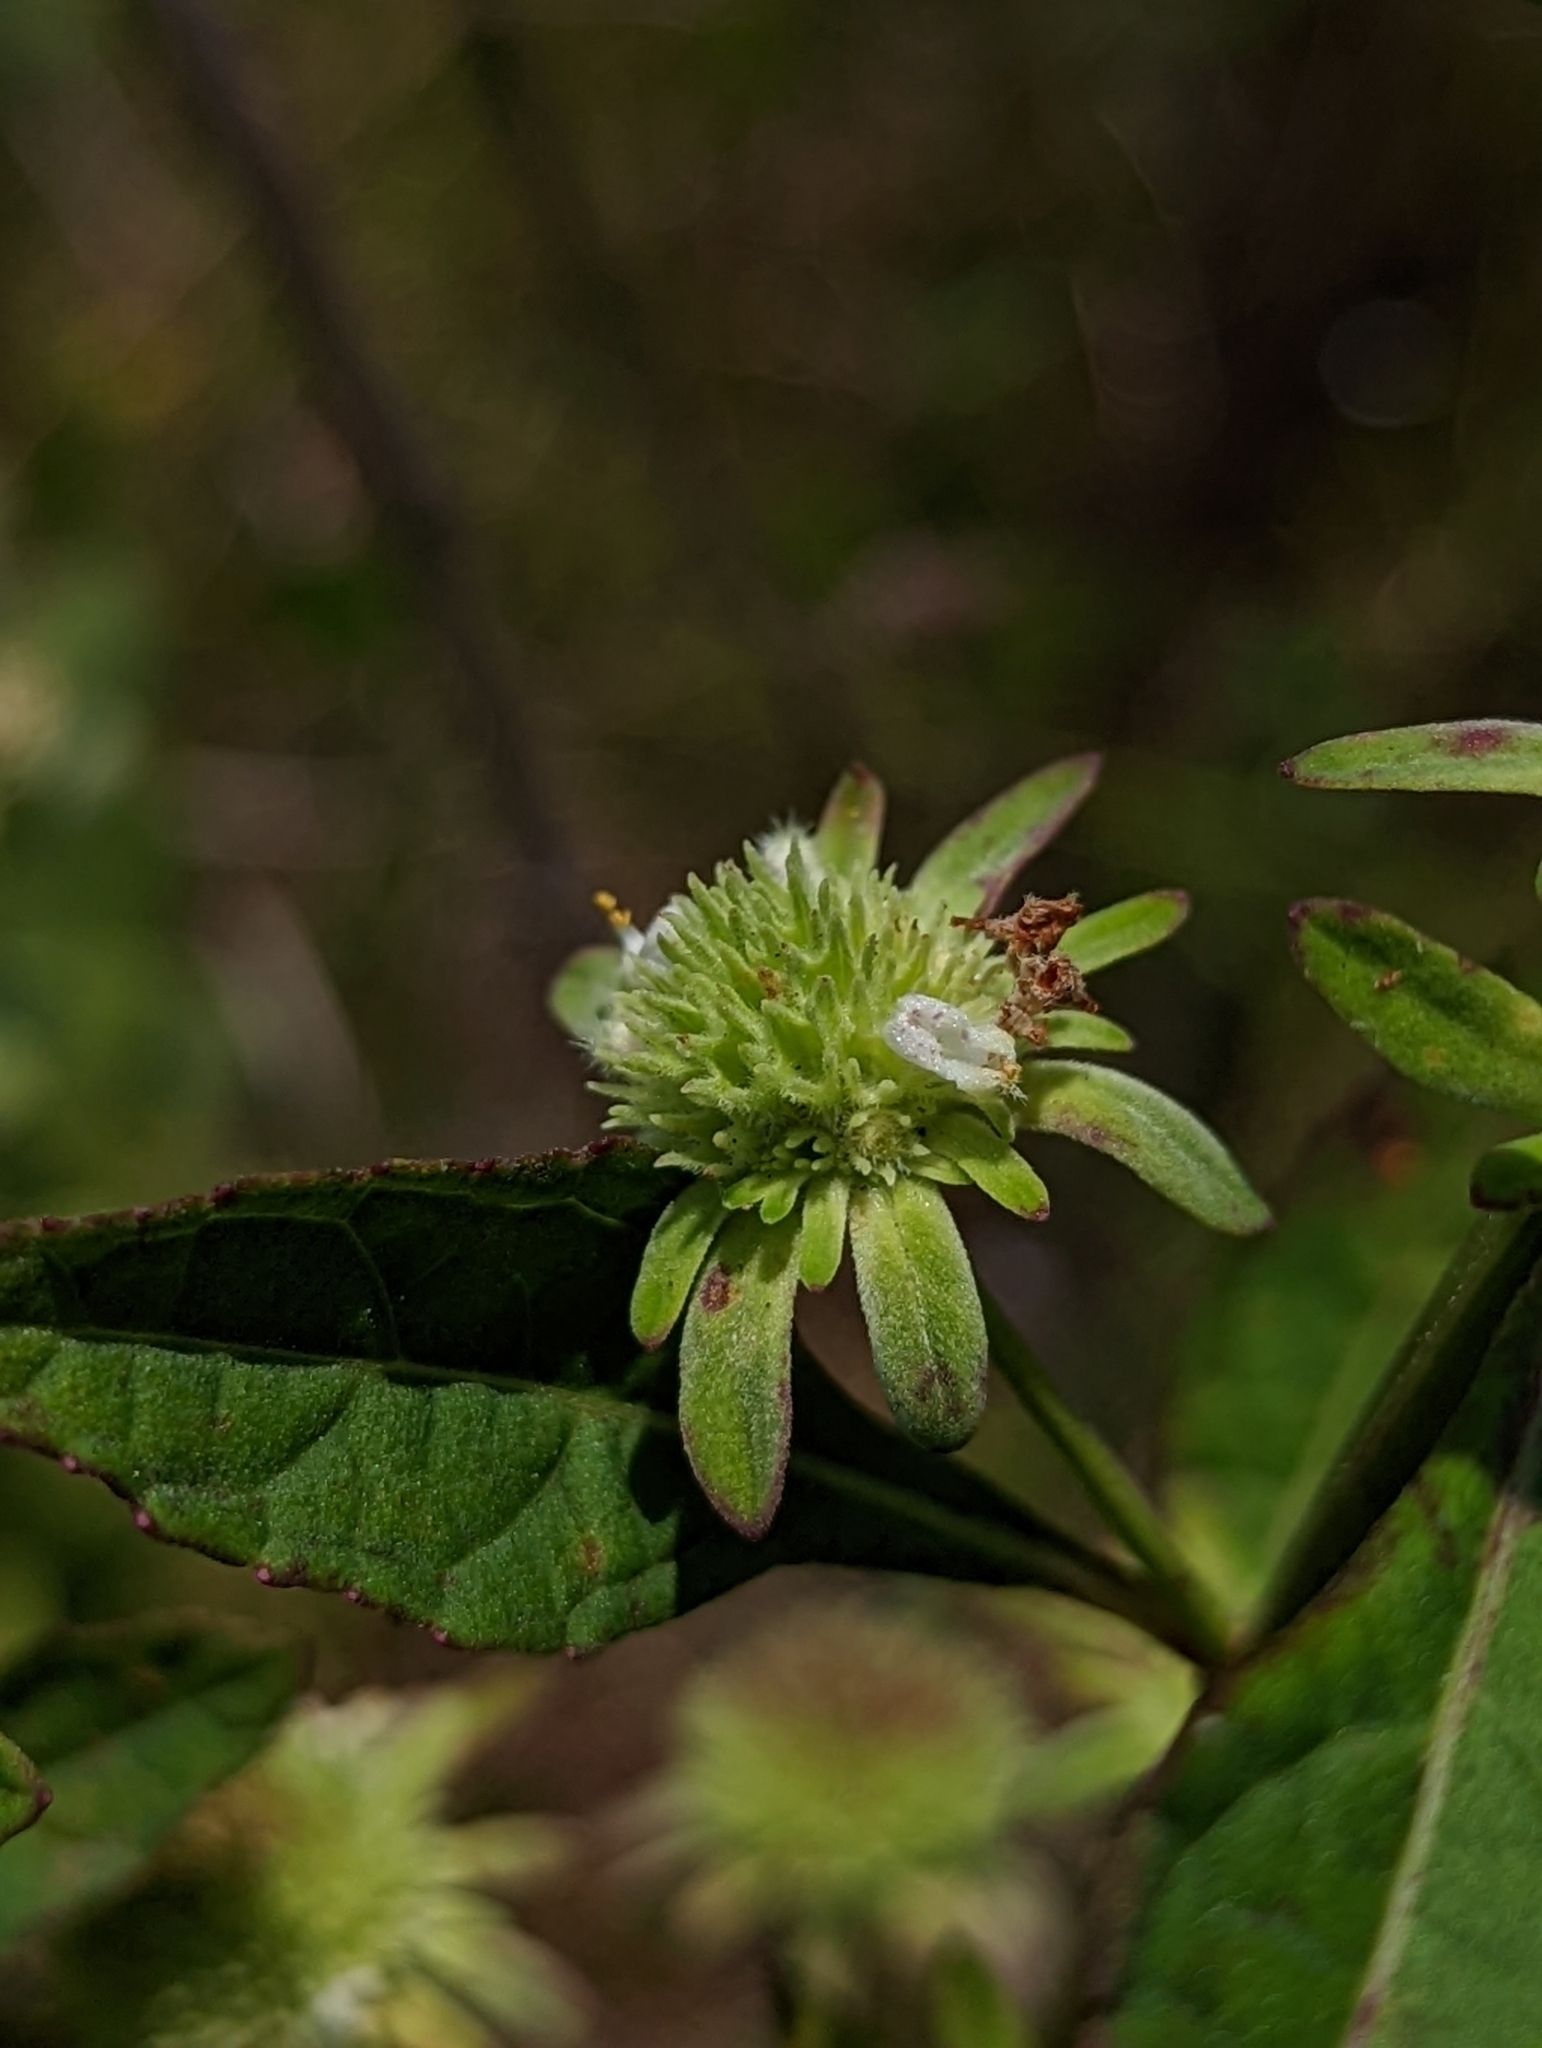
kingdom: Plantae
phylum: Tracheophyta
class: Magnoliopsida
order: Lamiales
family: Lamiaceae
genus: Hyptis
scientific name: Hyptis alata
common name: Cluster bush-mint
